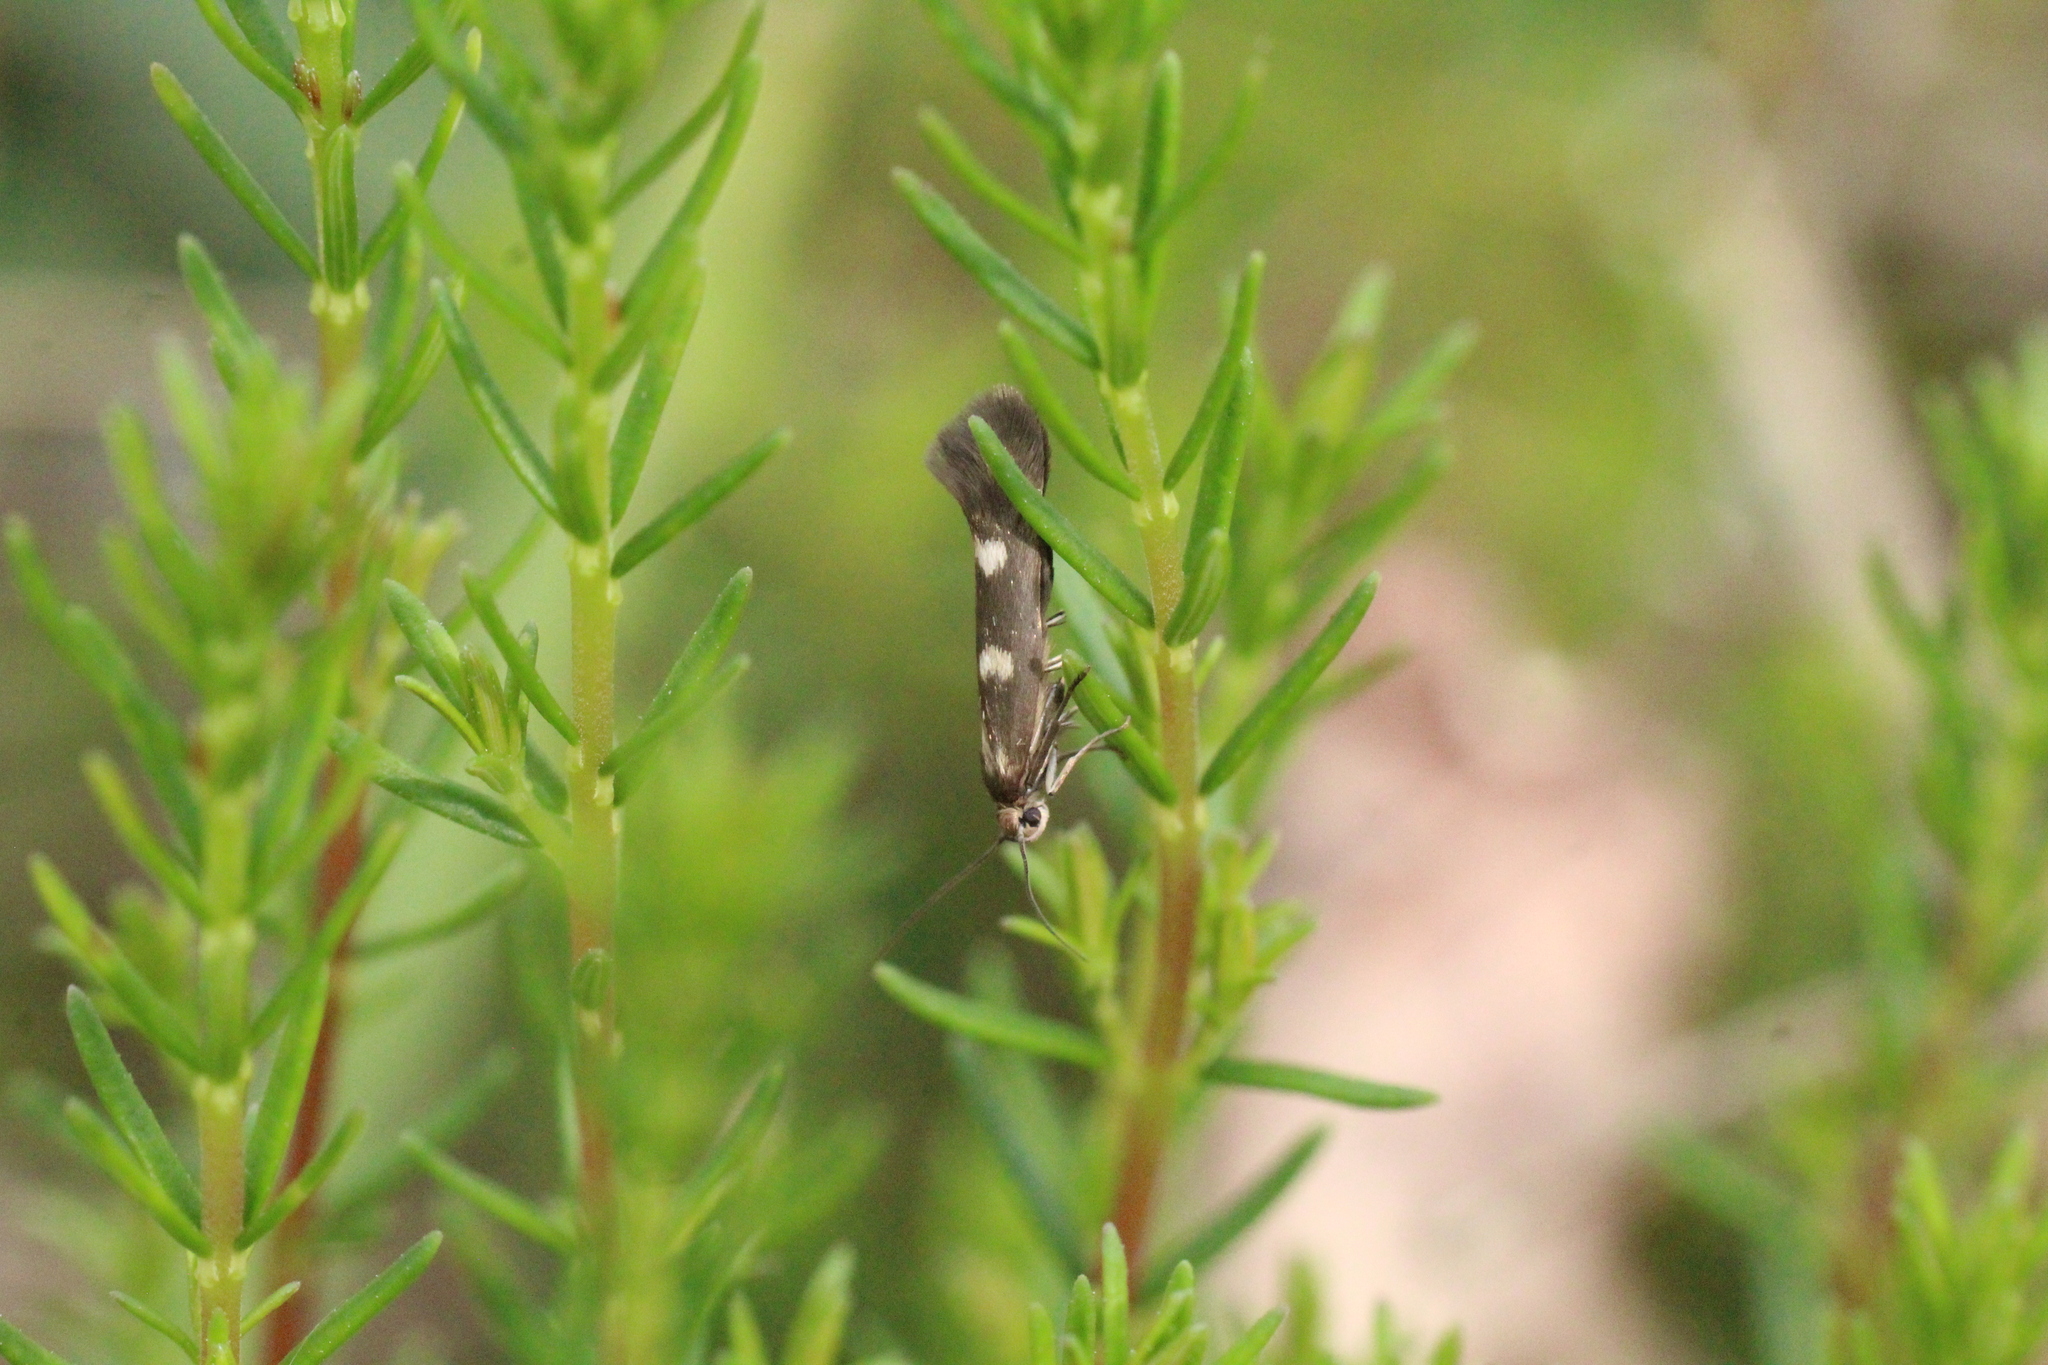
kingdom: Animalia
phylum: Arthropoda
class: Insecta
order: Lepidoptera
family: Scythrididae
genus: Scythris
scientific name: Scythris scopolella
